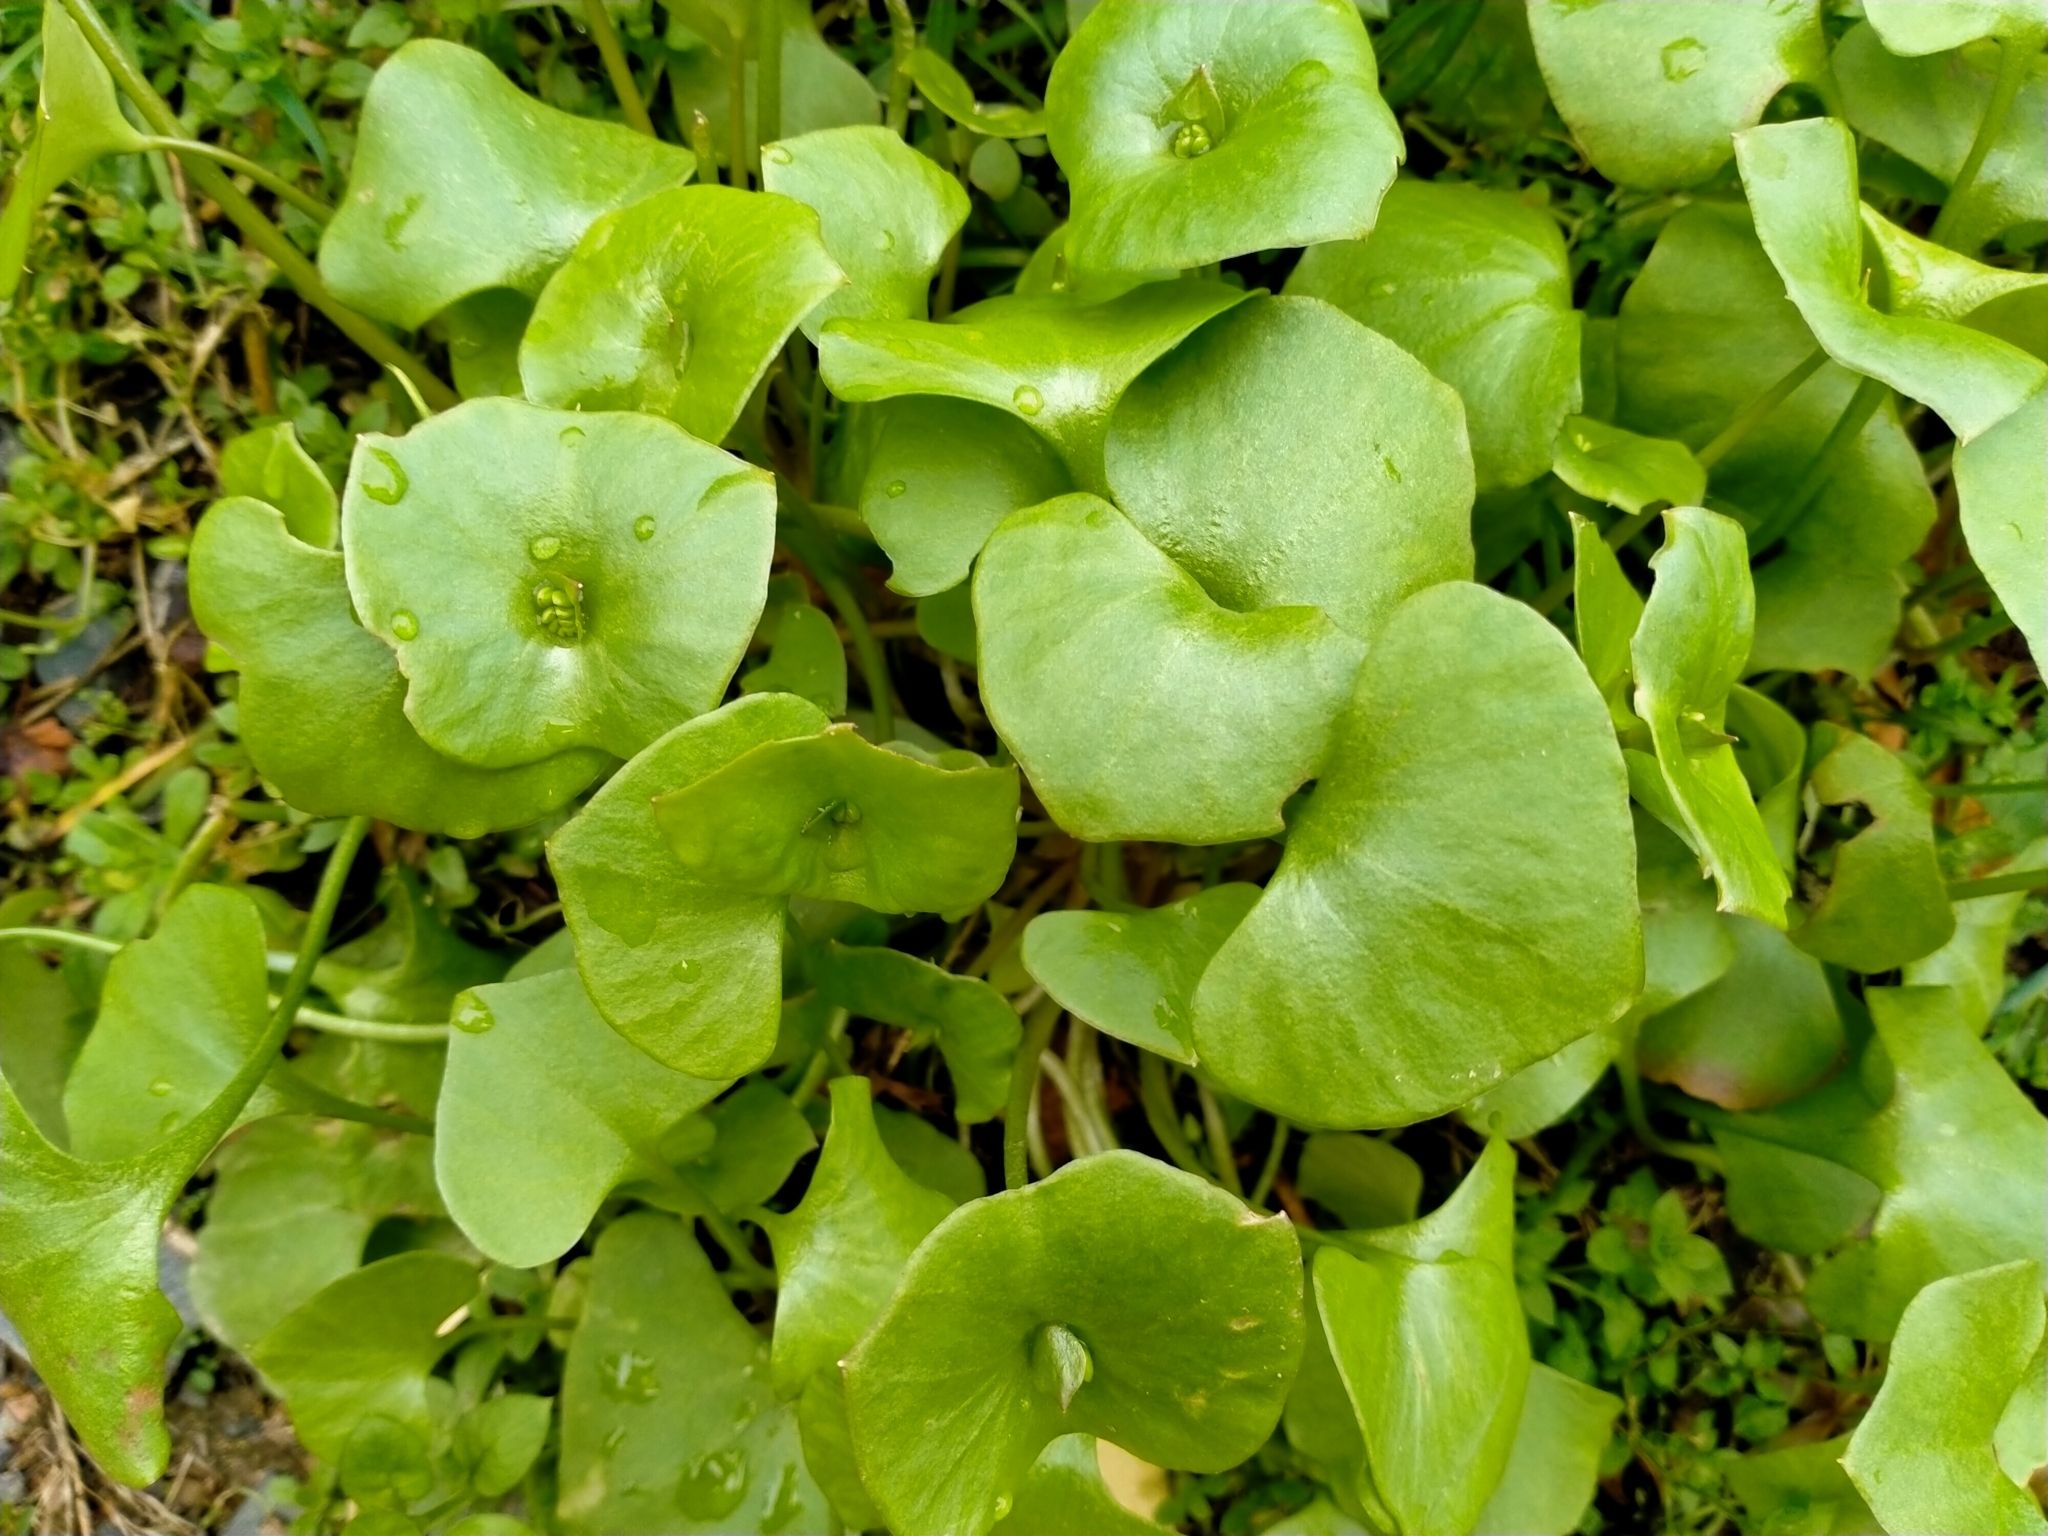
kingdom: Plantae
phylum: Tracheophyta
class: Magnoliopsida
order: Caryophyllales
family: Montiaceae
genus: Claytonia
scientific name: Claytonia perfoliata
